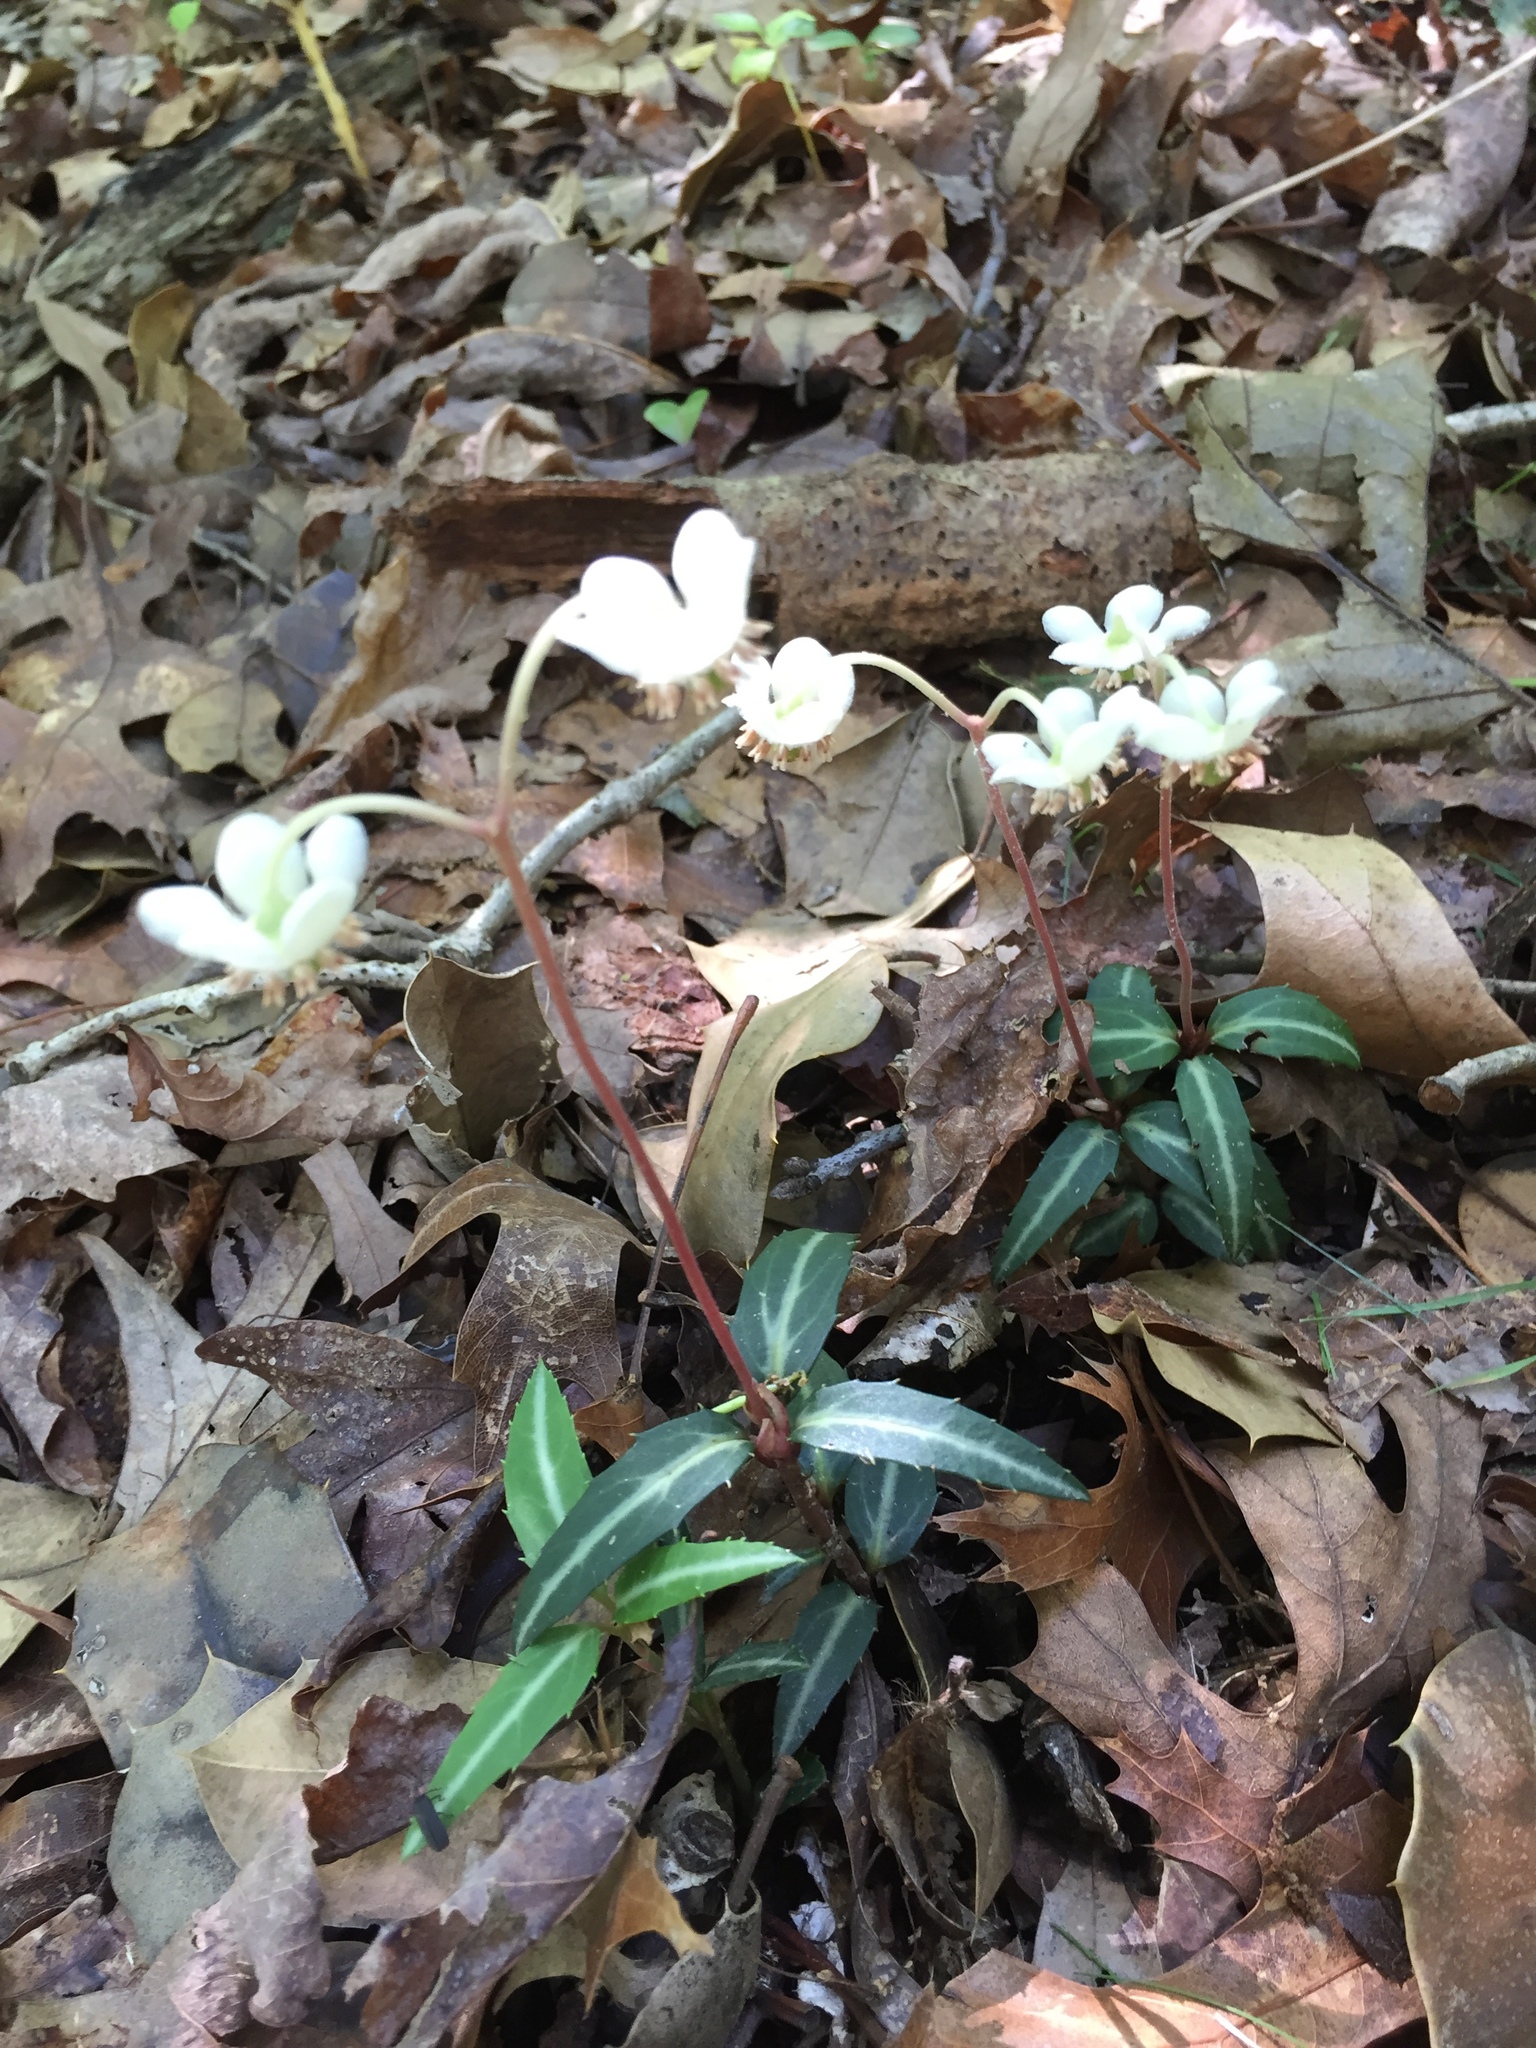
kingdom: Plantae
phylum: Tracheophyta
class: Magnoliopsida
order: Ericales
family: Ericaceae
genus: Chimaphila
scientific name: Chimaphila maculata
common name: Spotted pipsissewa
